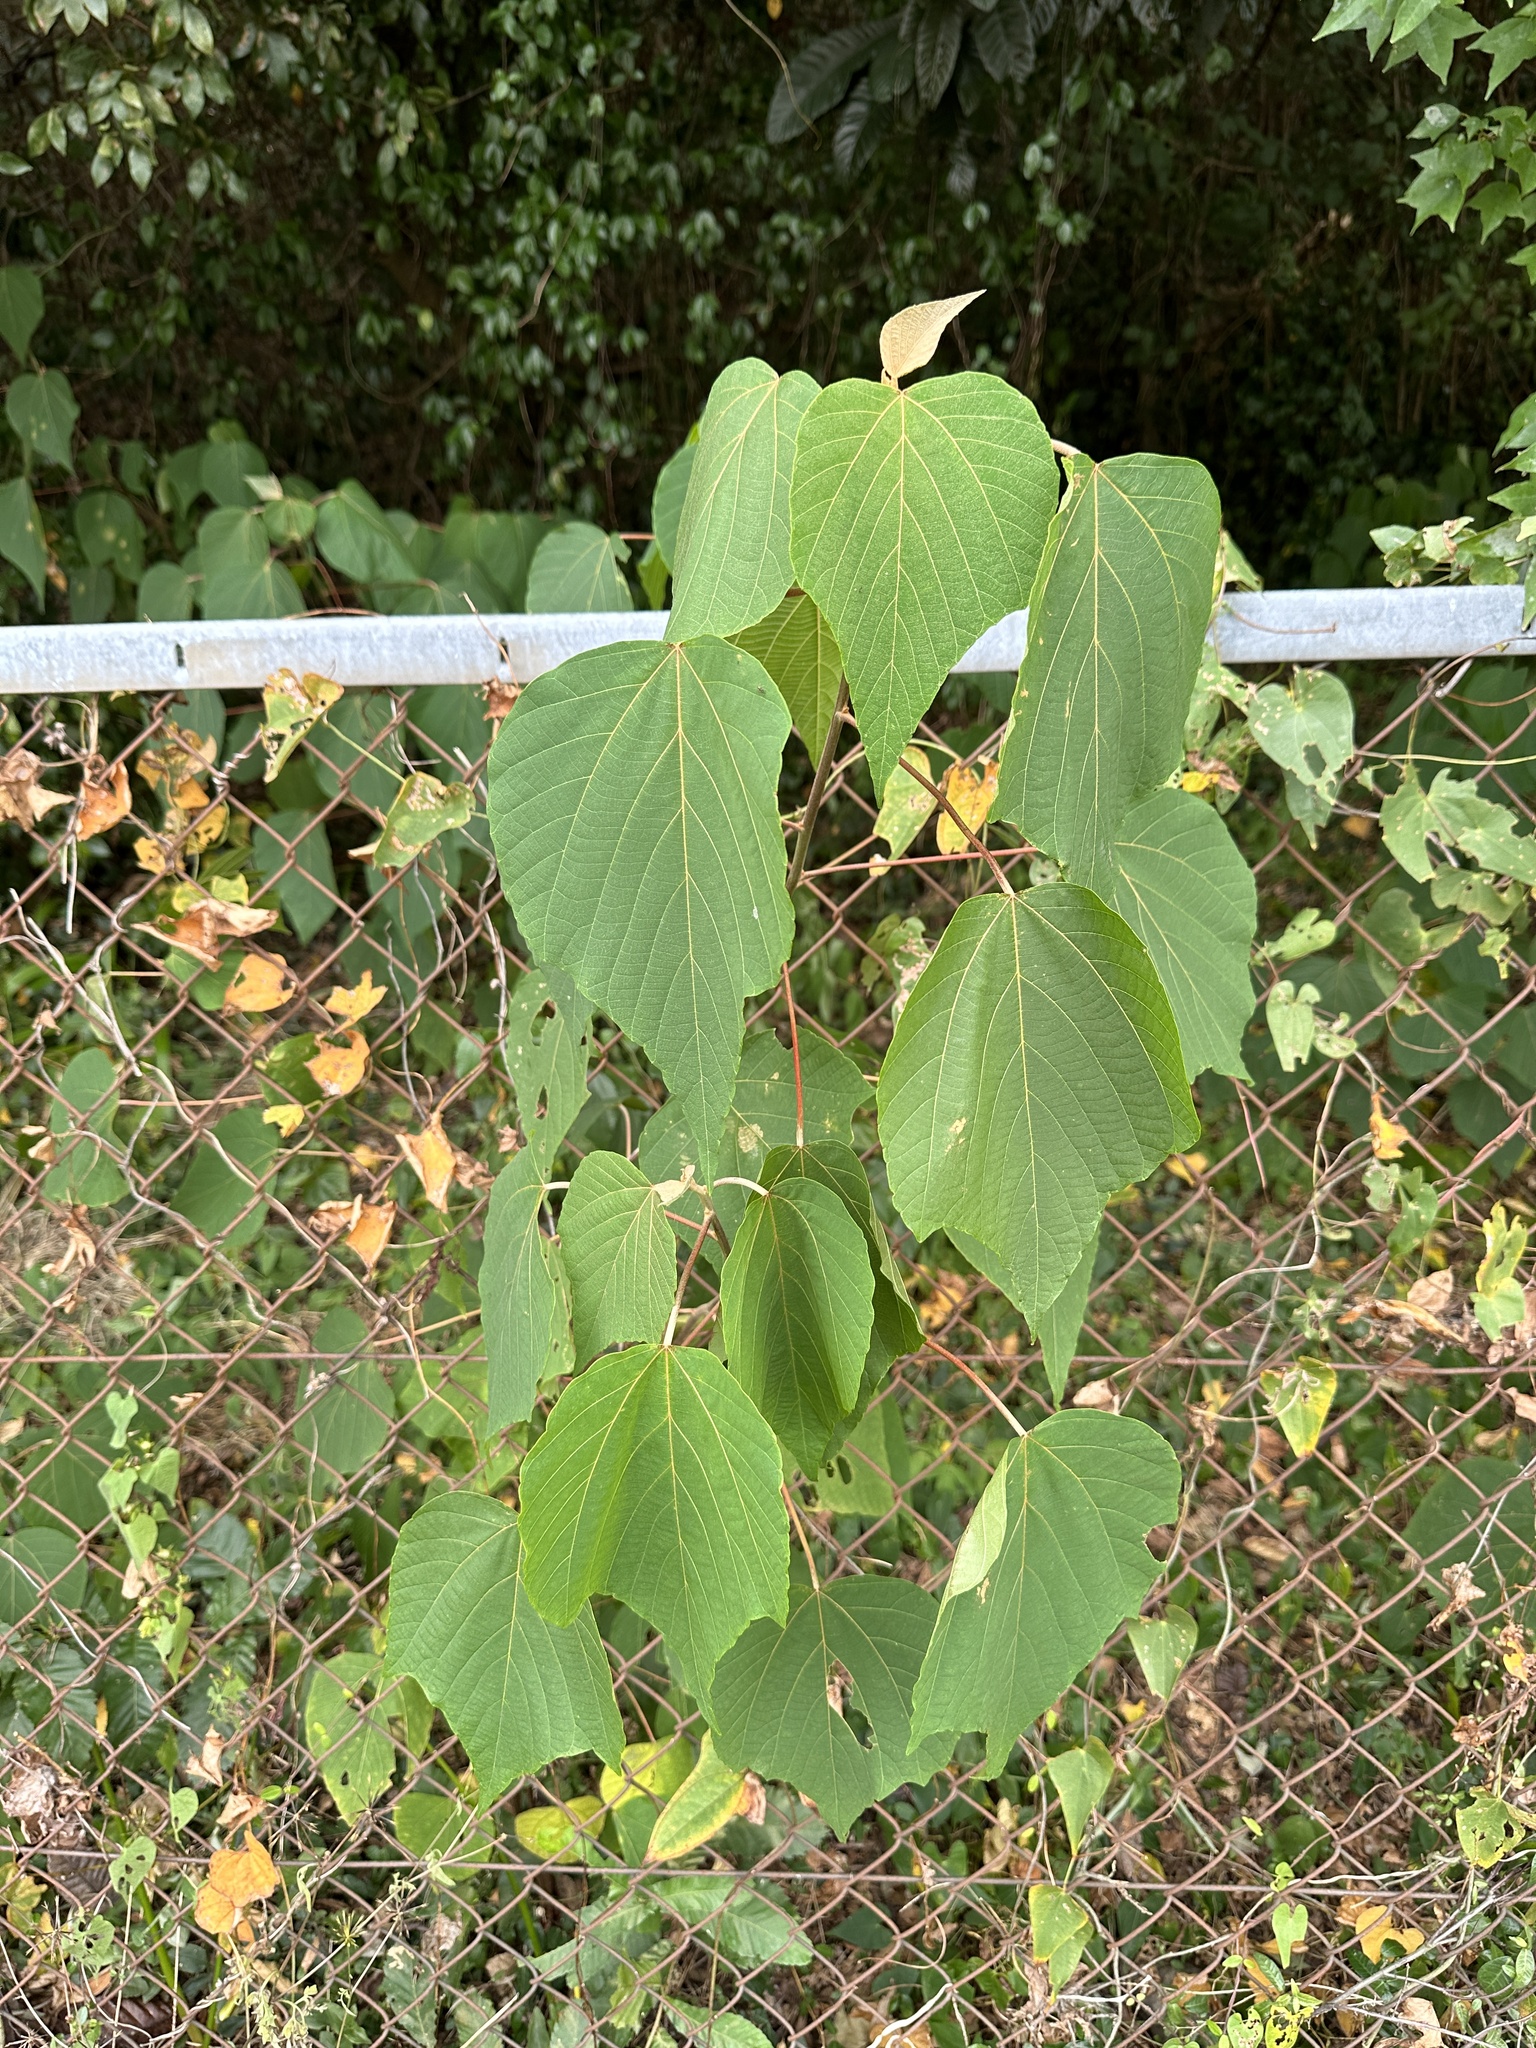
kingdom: Plantae
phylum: Tracheophyta
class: Magnoliopsida
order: Malpighiales
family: Euphorbiaceae
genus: Mallotus
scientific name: Mallotus japonicus
